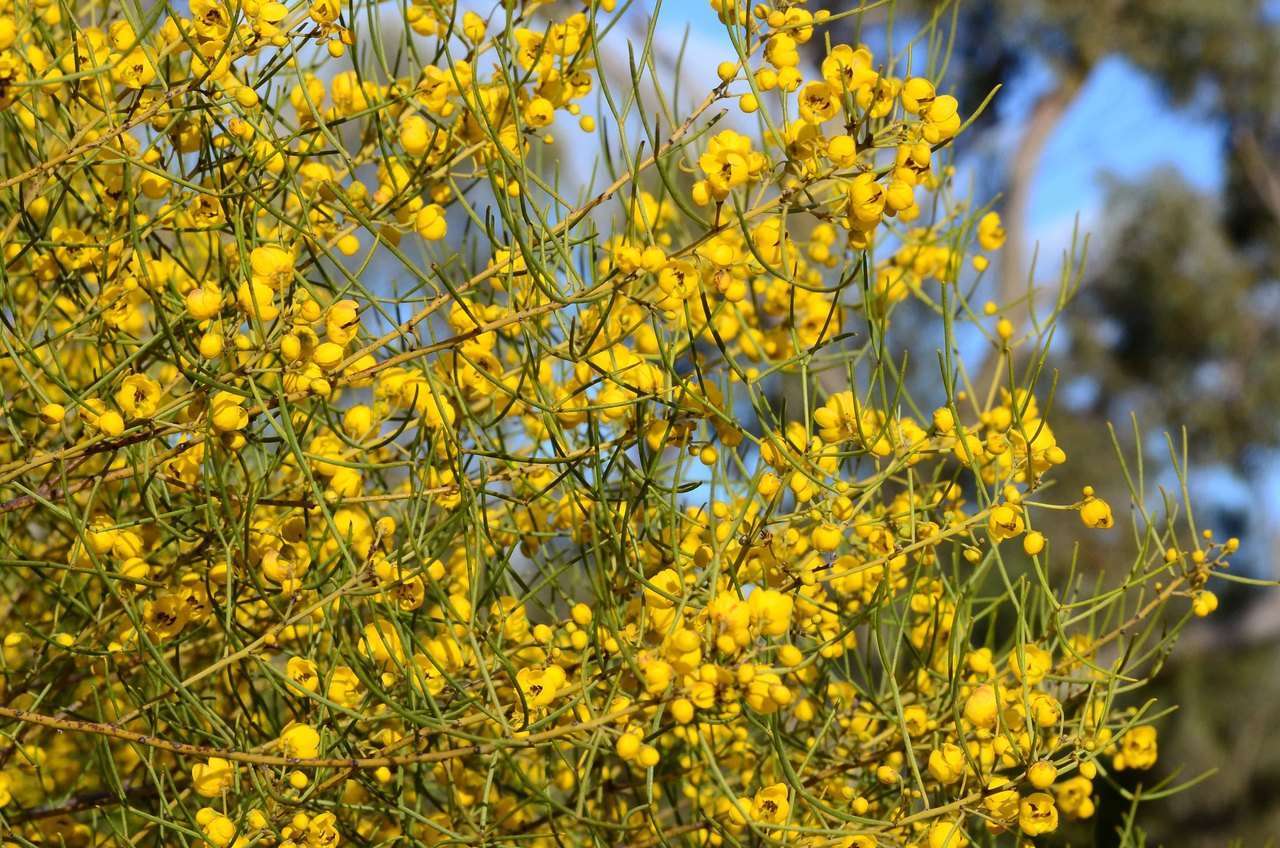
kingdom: Plantae
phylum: Tracheophyta
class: Magnoliopsida
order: Fabales
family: Fabaceae
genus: Senna
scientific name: Senna artemisioides
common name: Burnt-leaved acacia
